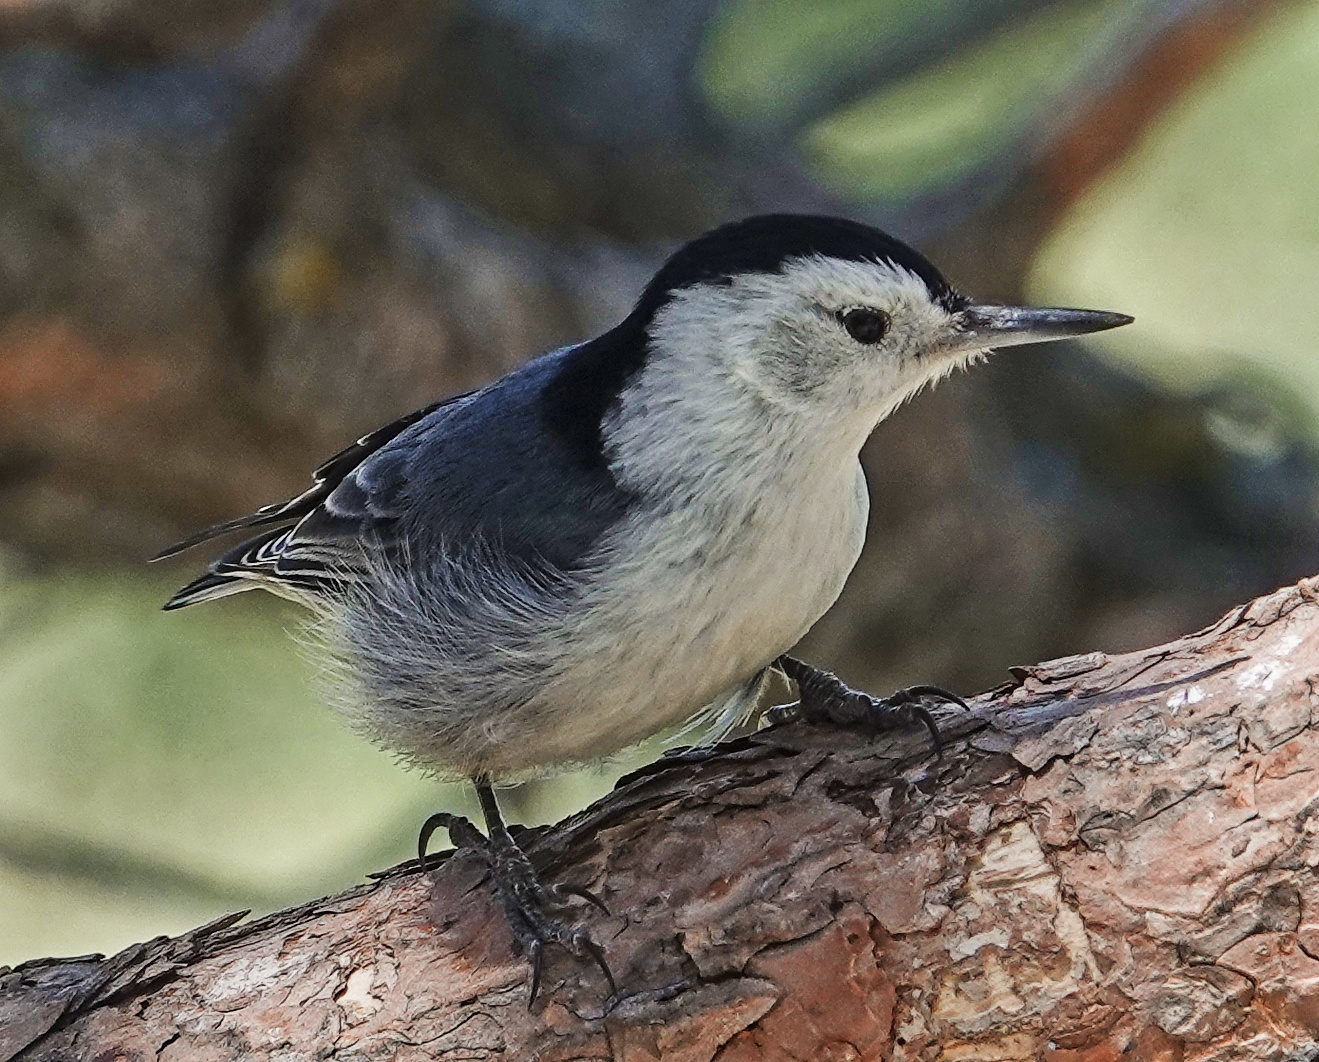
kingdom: Animalia
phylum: Chordata
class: Aves
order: Passeriformes
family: Sittidae
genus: Sitta
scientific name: Sitta carolinensis
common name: White-breasted nuthatch
